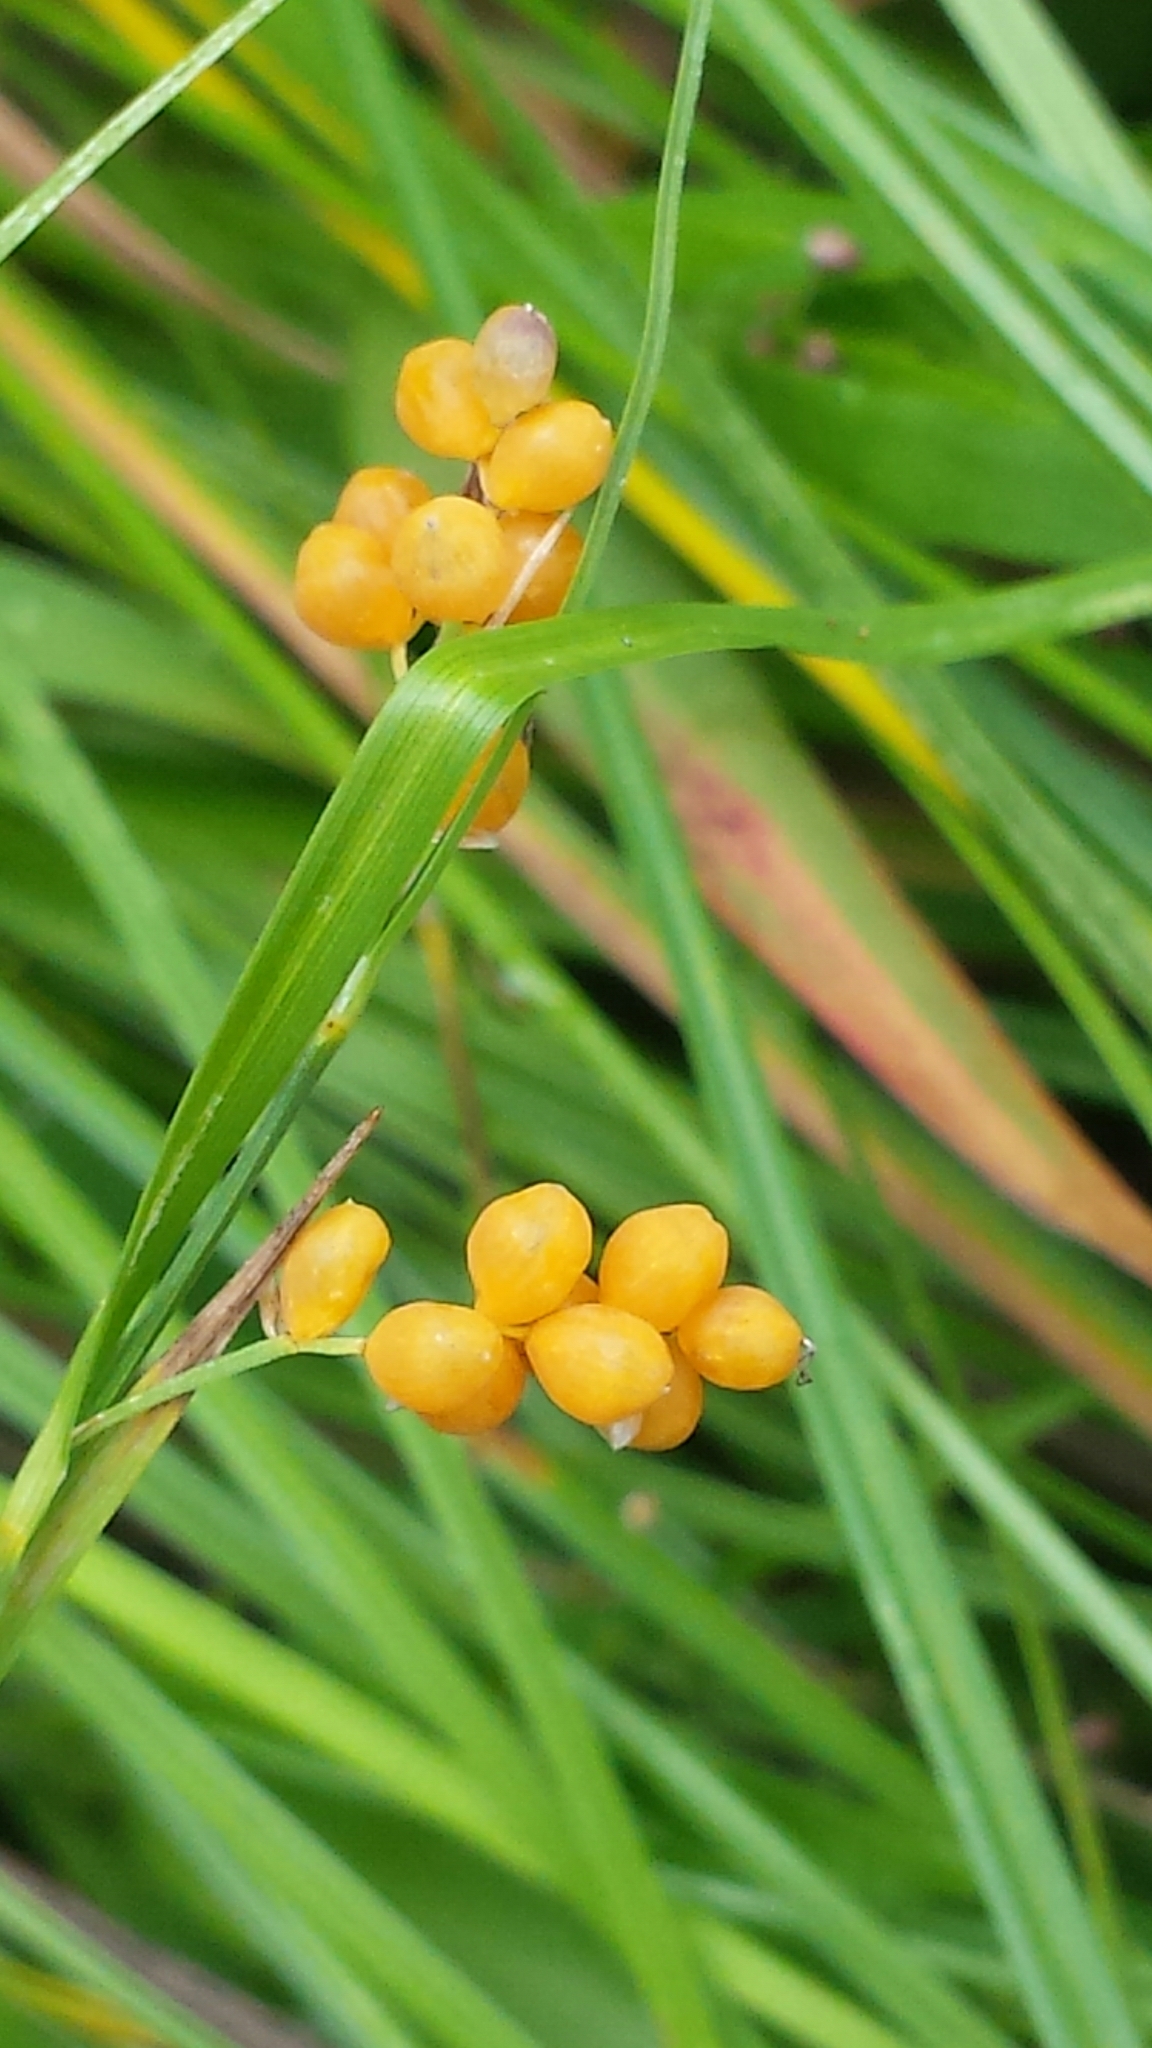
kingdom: Plantae
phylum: Tracheophyta
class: Liliopsida
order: Poales
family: Cyperaceae
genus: Carex
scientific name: Carex aurea
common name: Golden sedge
